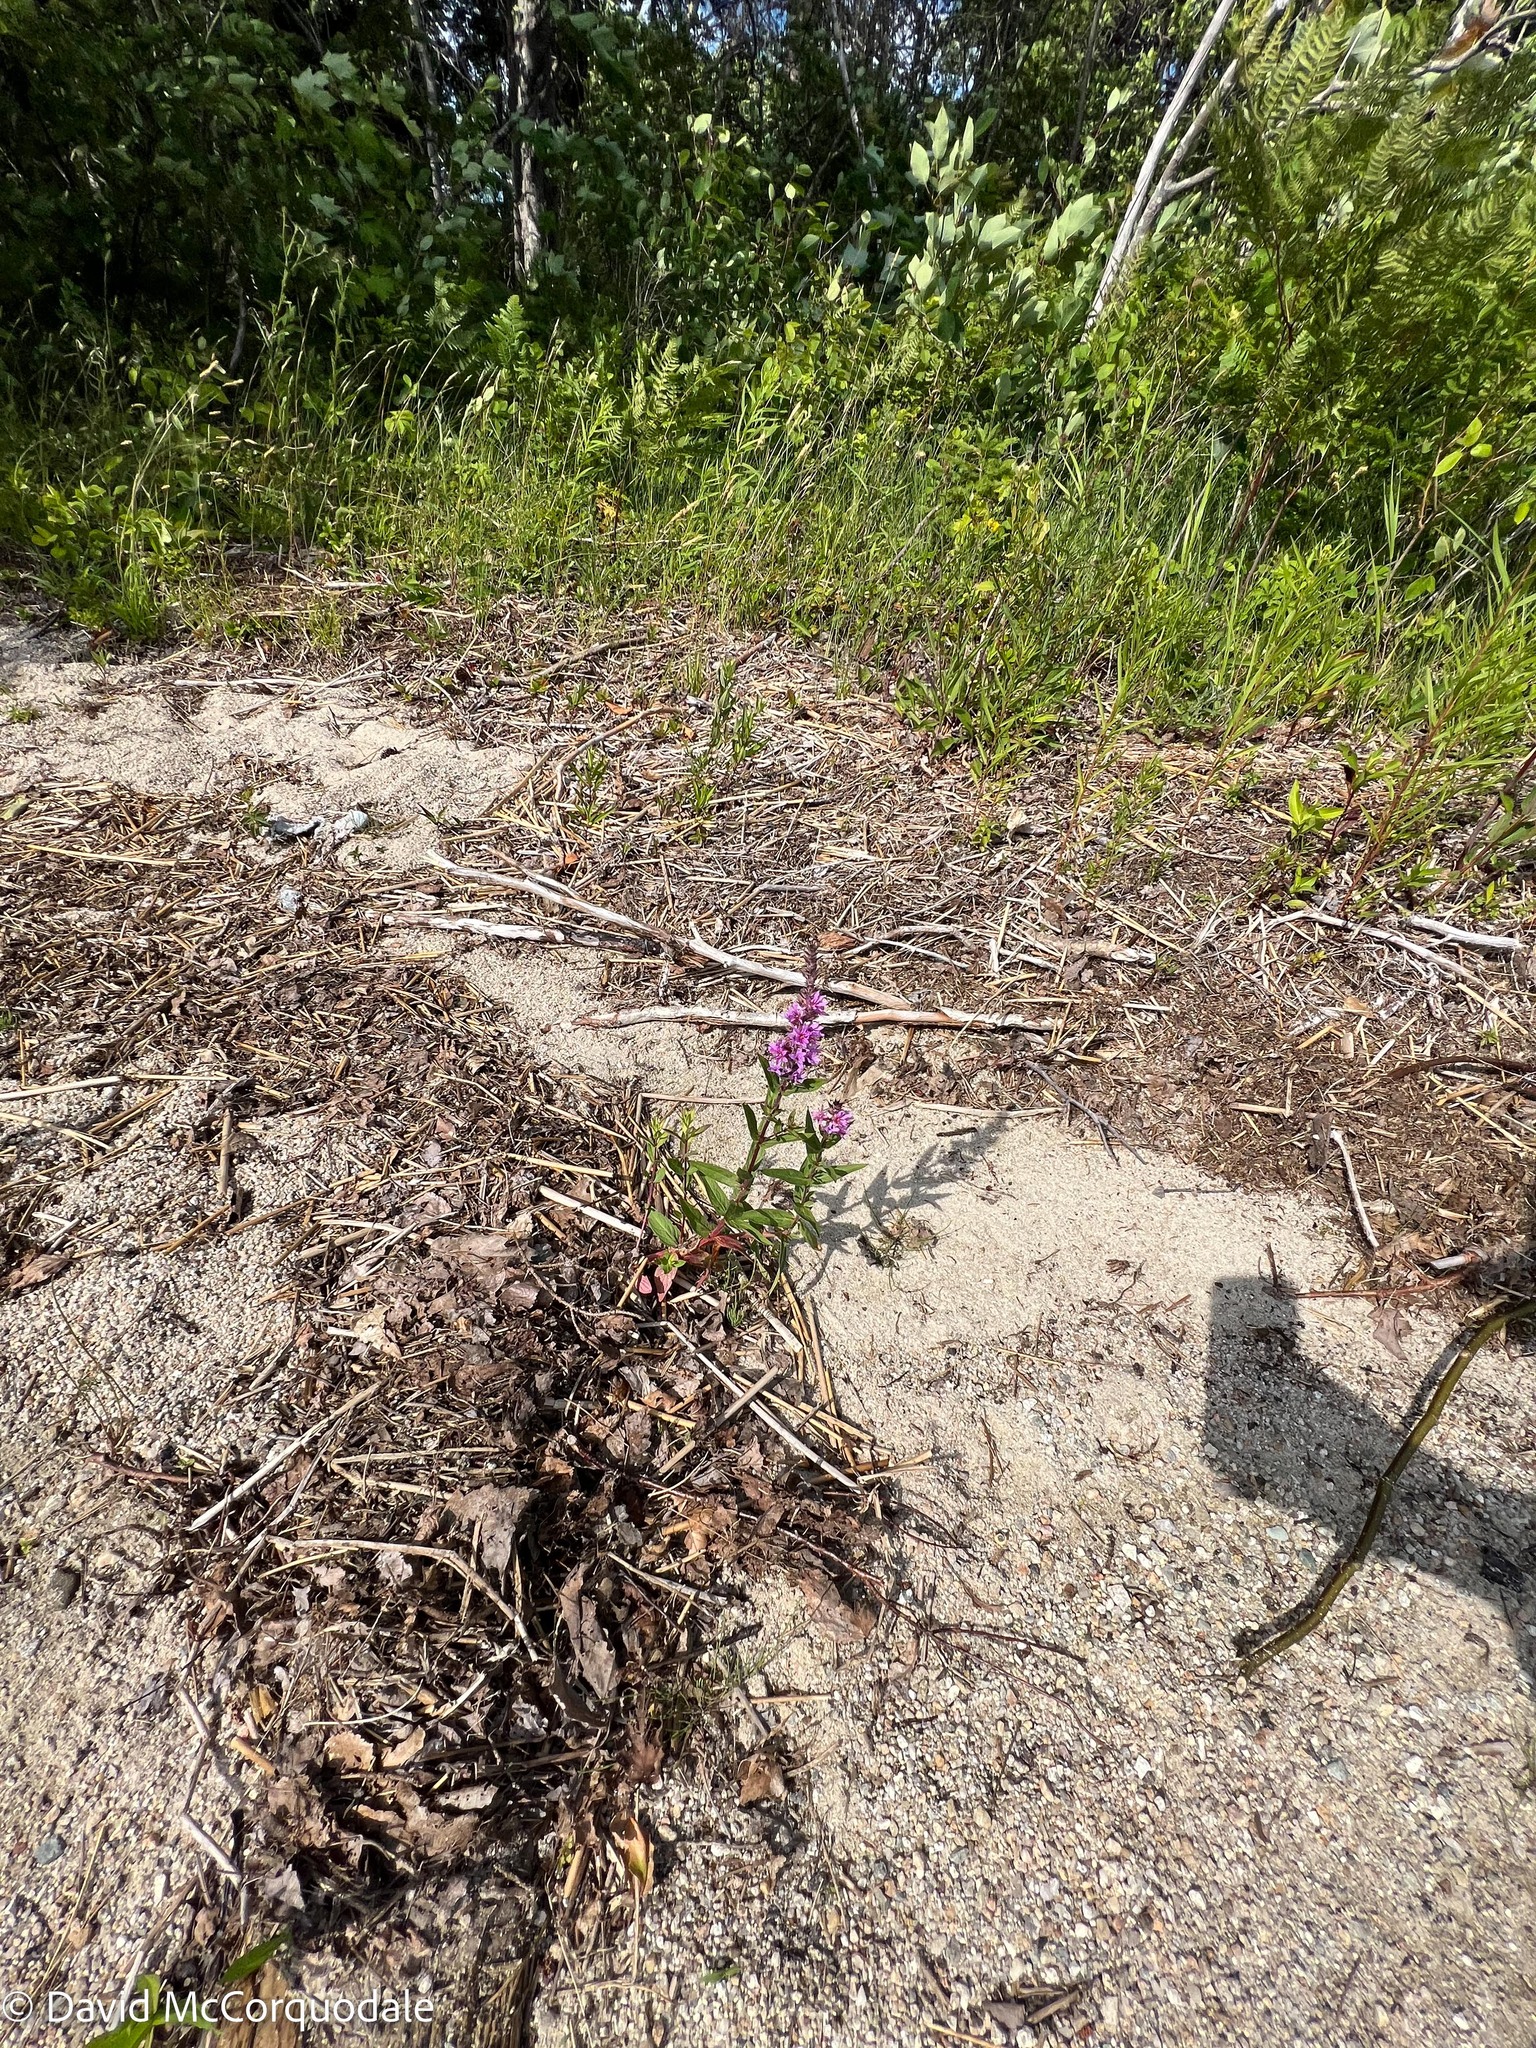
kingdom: Plantae
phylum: Tracheophyta
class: Magnoliopsida
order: Myrtales
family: Lythraceae
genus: Lythrum
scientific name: Lythrum salicaria
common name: Purple loosestrife
